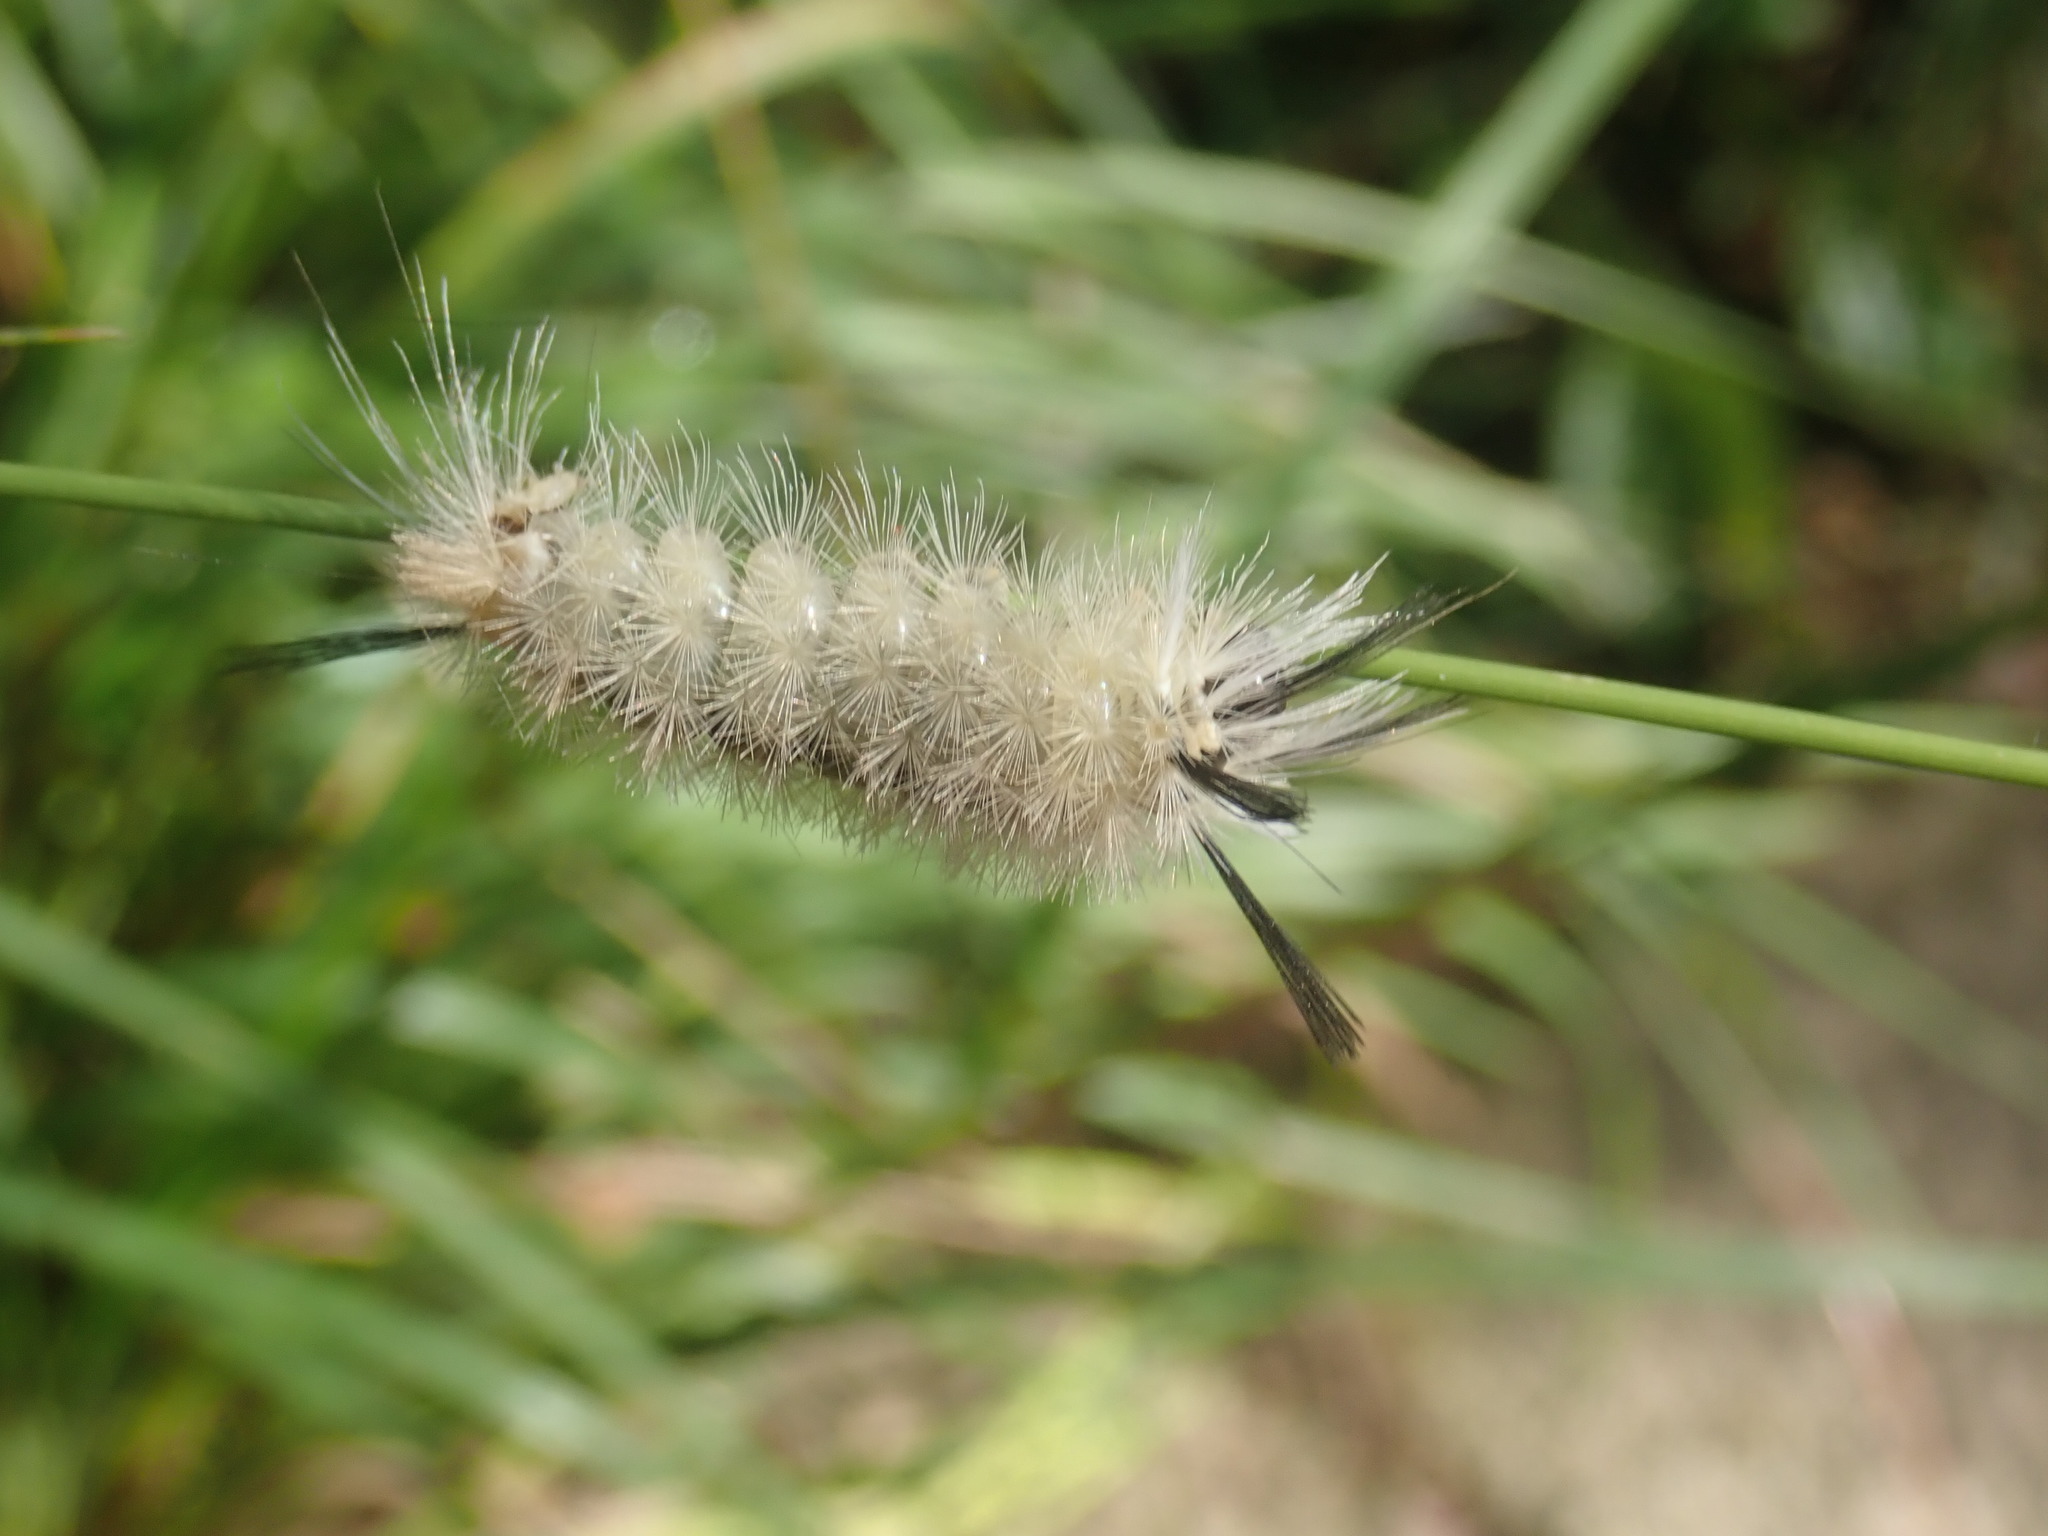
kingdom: Animalia
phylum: Arthropoda
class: Insecta
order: Lepidoptera
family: Erebidae
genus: Halysidota
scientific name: Halysidota tessellaris
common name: Banded tussock moth
